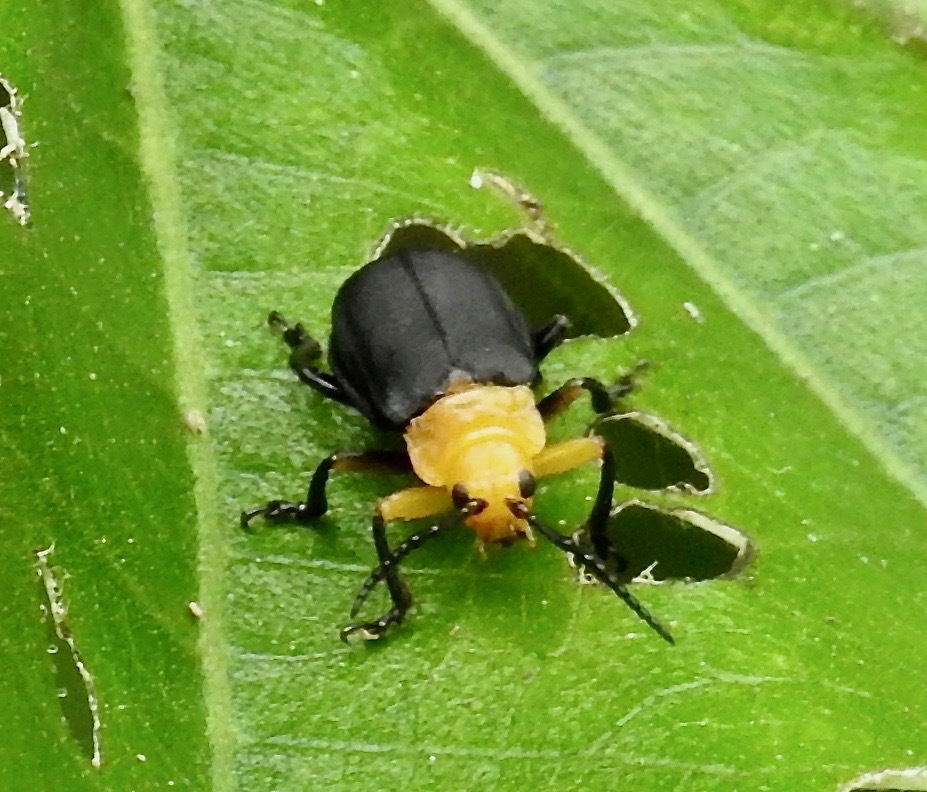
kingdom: Animalia
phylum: Arthropoda
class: Insecta
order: Coleoptera
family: Chrysomelidae
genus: Monocesta
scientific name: Monocesta
